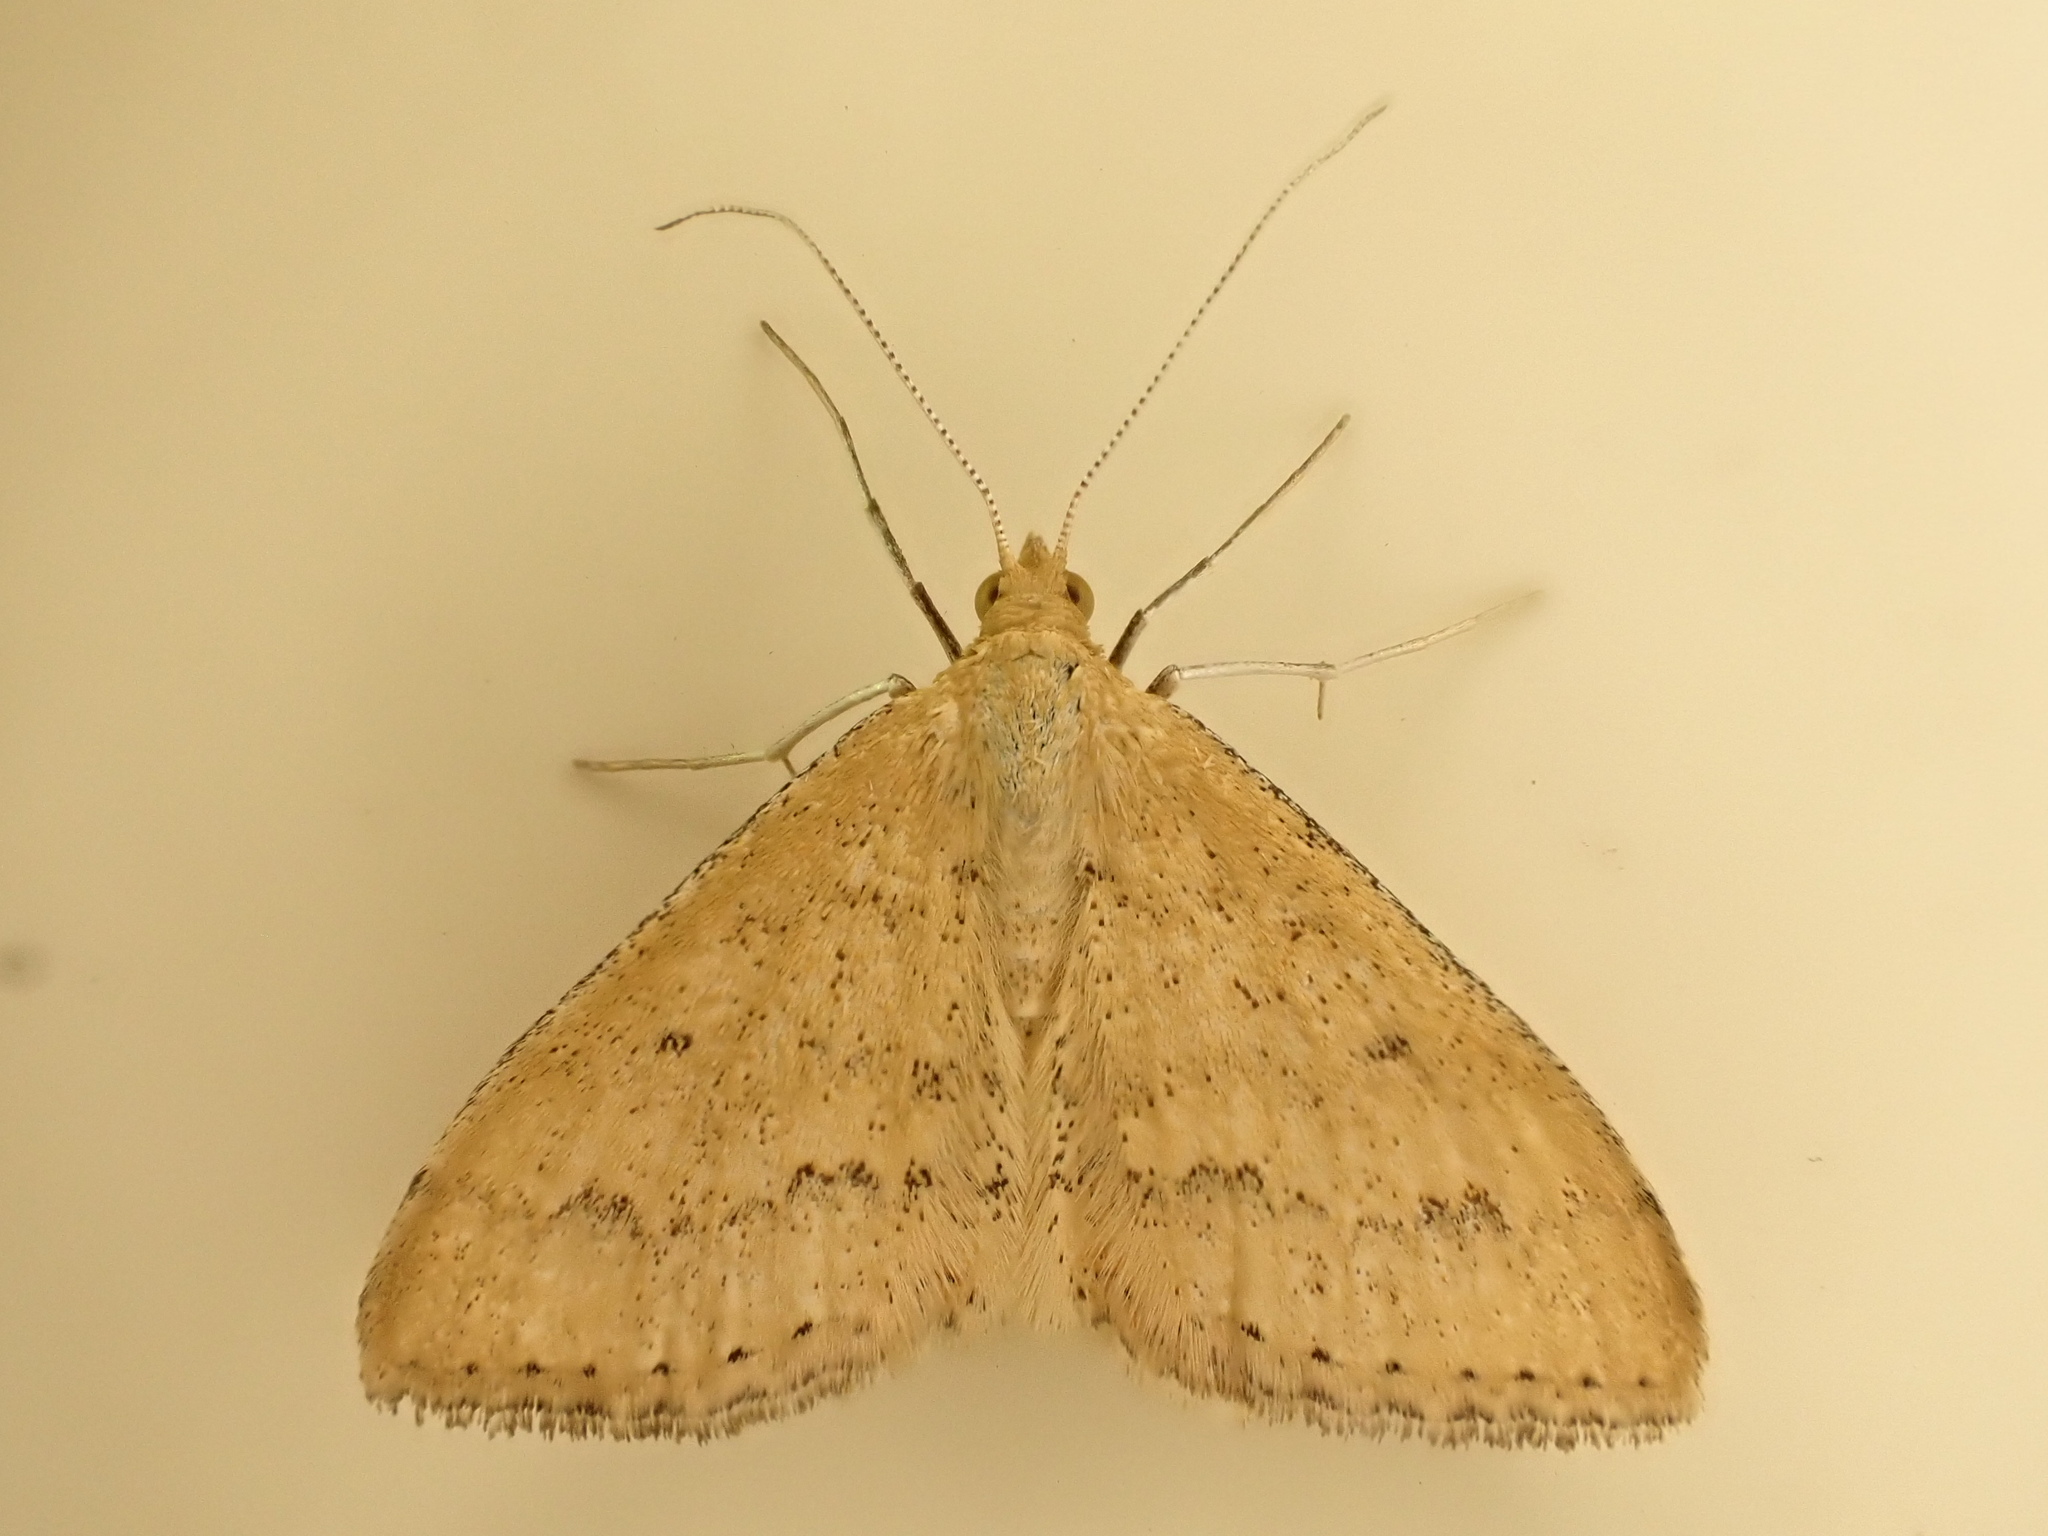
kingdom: Animalia
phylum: Arthropoda
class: Insecta
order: Lepidoptera
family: Geometridae
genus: Scopula
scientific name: Scopula rubraria
